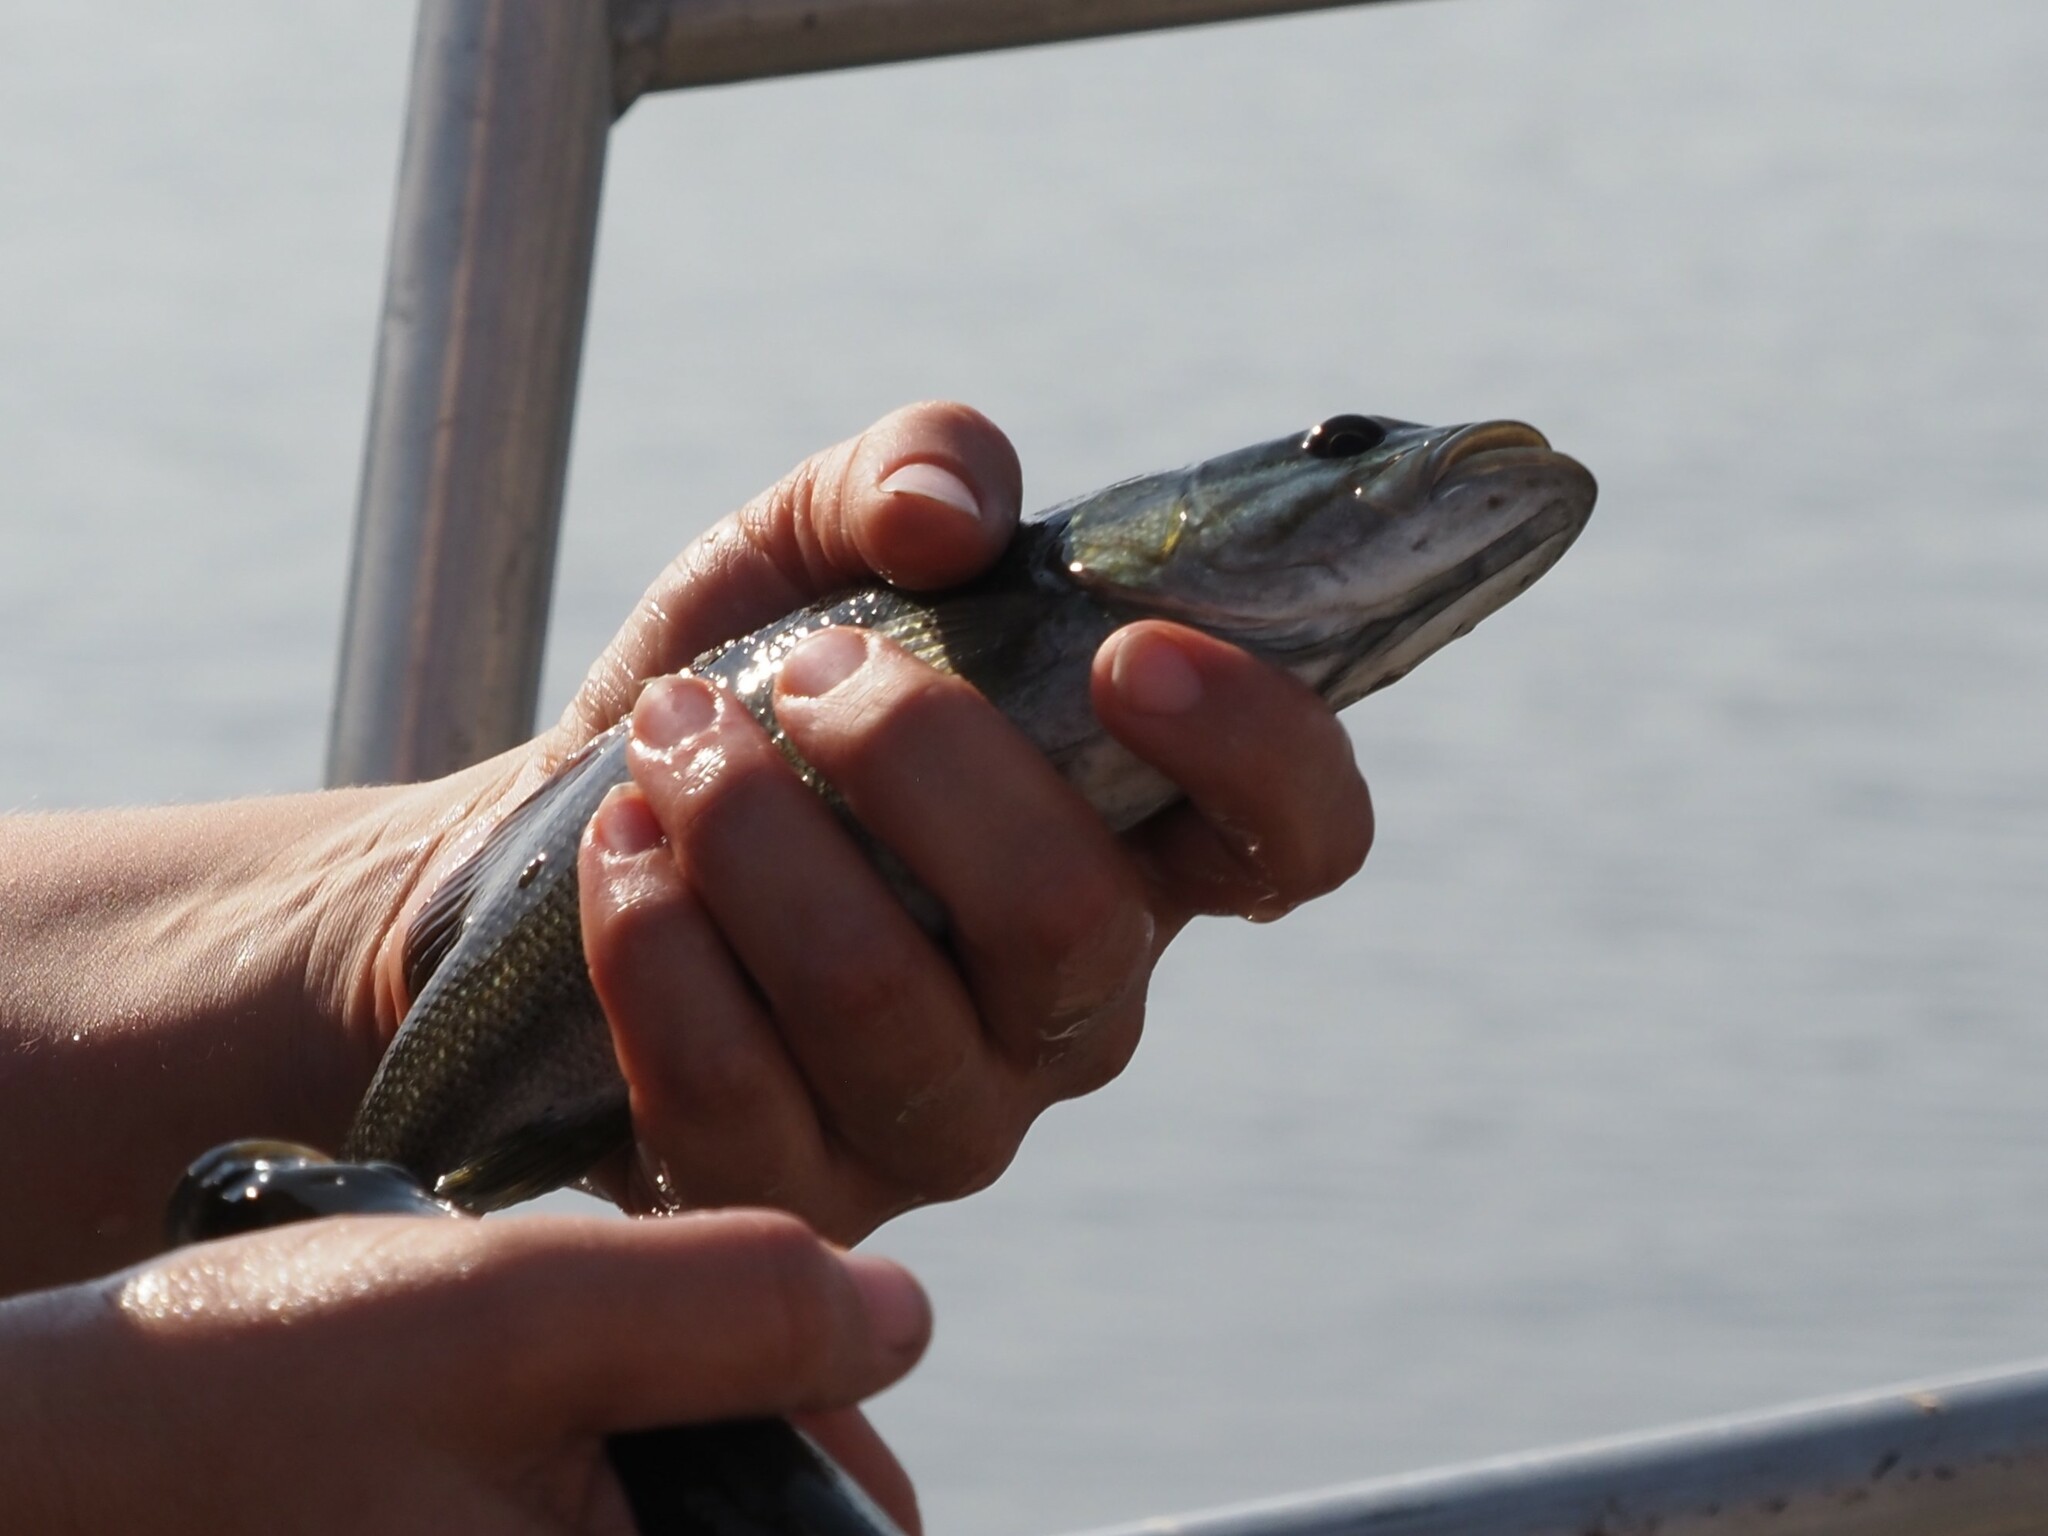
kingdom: Animalia
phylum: Chordata
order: Perciformes
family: Centrarchidae
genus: Micropterus
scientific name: Micropterus dolomieu
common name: Smallmouth bass
